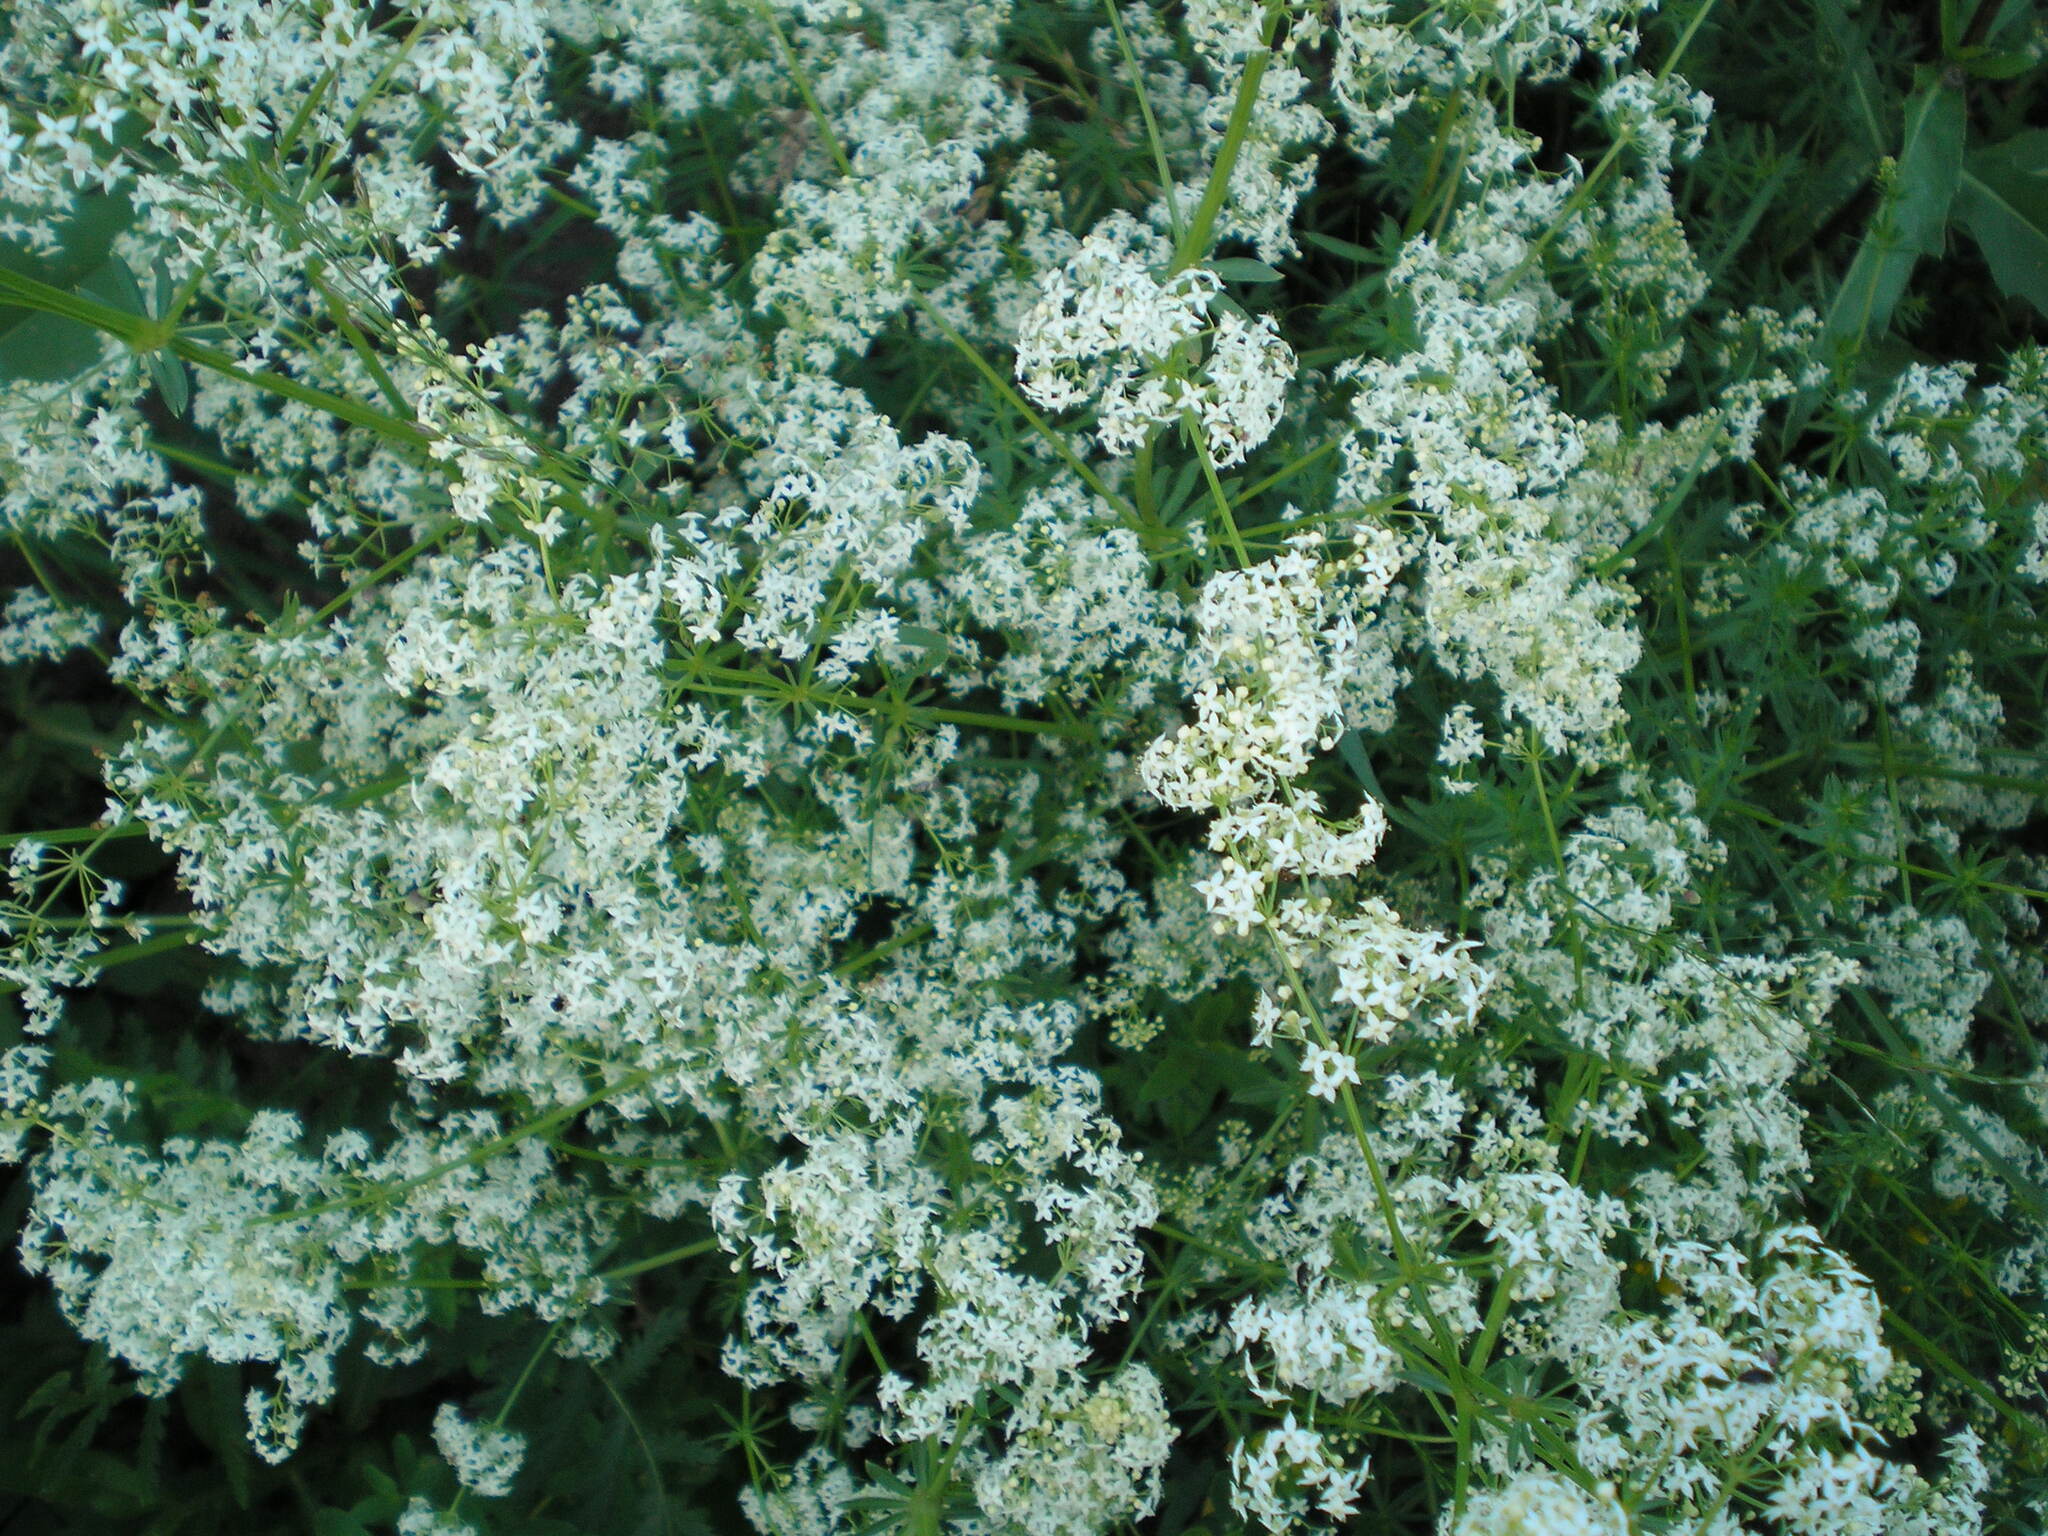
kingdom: Plantae
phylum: Tracheophyta
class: Magnoliopsida
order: Gentianales
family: Rubiaceae
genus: Galium
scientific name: Galium mollugo
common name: Hedge bedstraw
